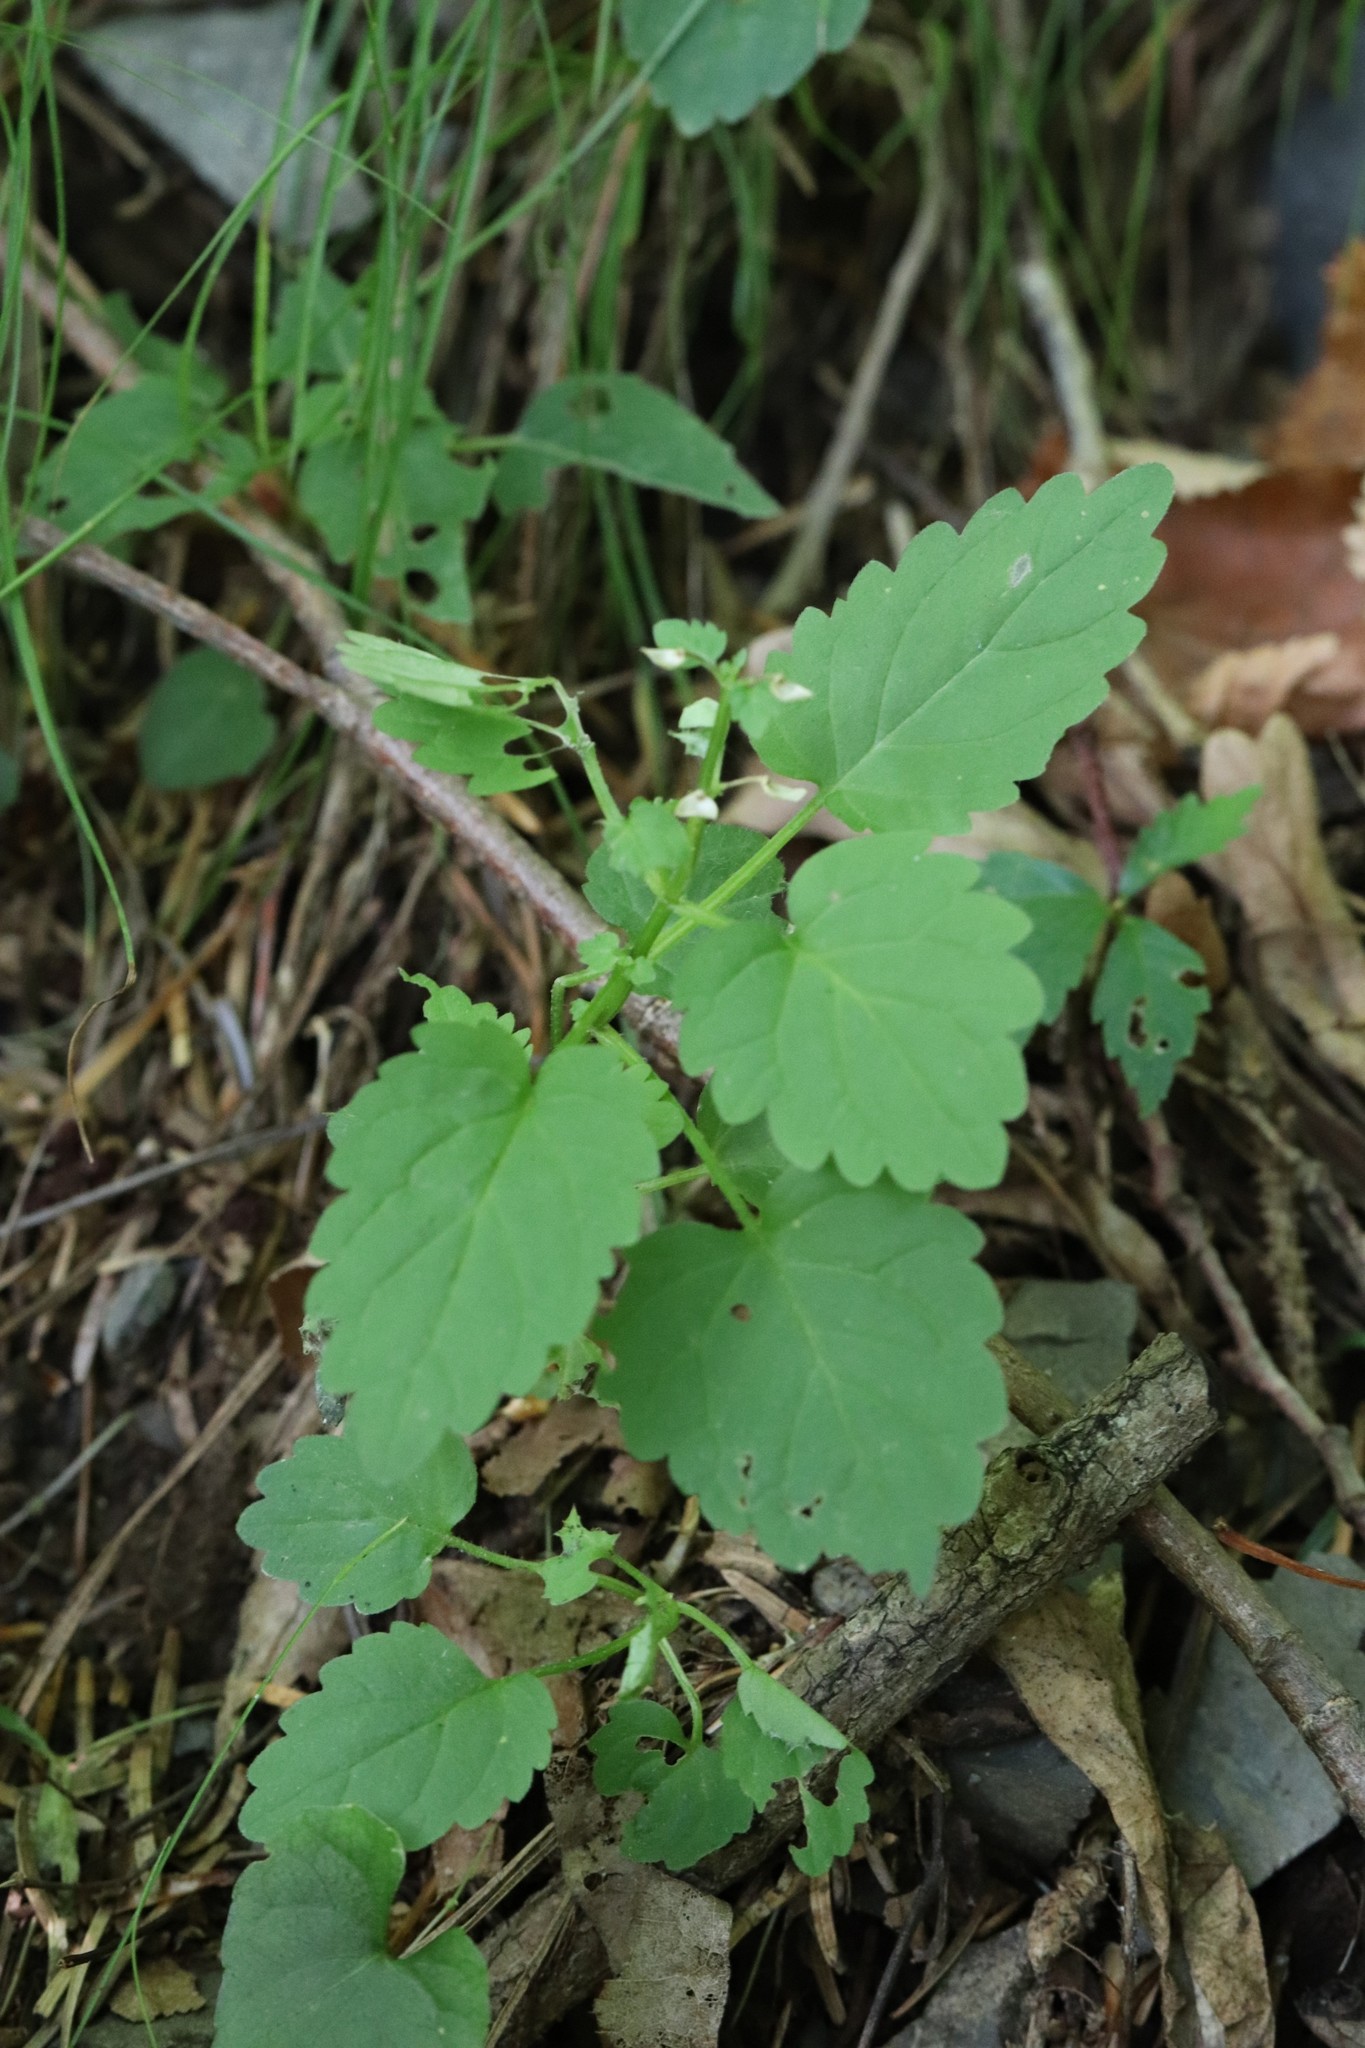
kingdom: Plantae
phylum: Tracheophyta
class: Magnoliopsida
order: Lamiales
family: Lamiaceae
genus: Scutellaria
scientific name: Scutellaria pekinensis
